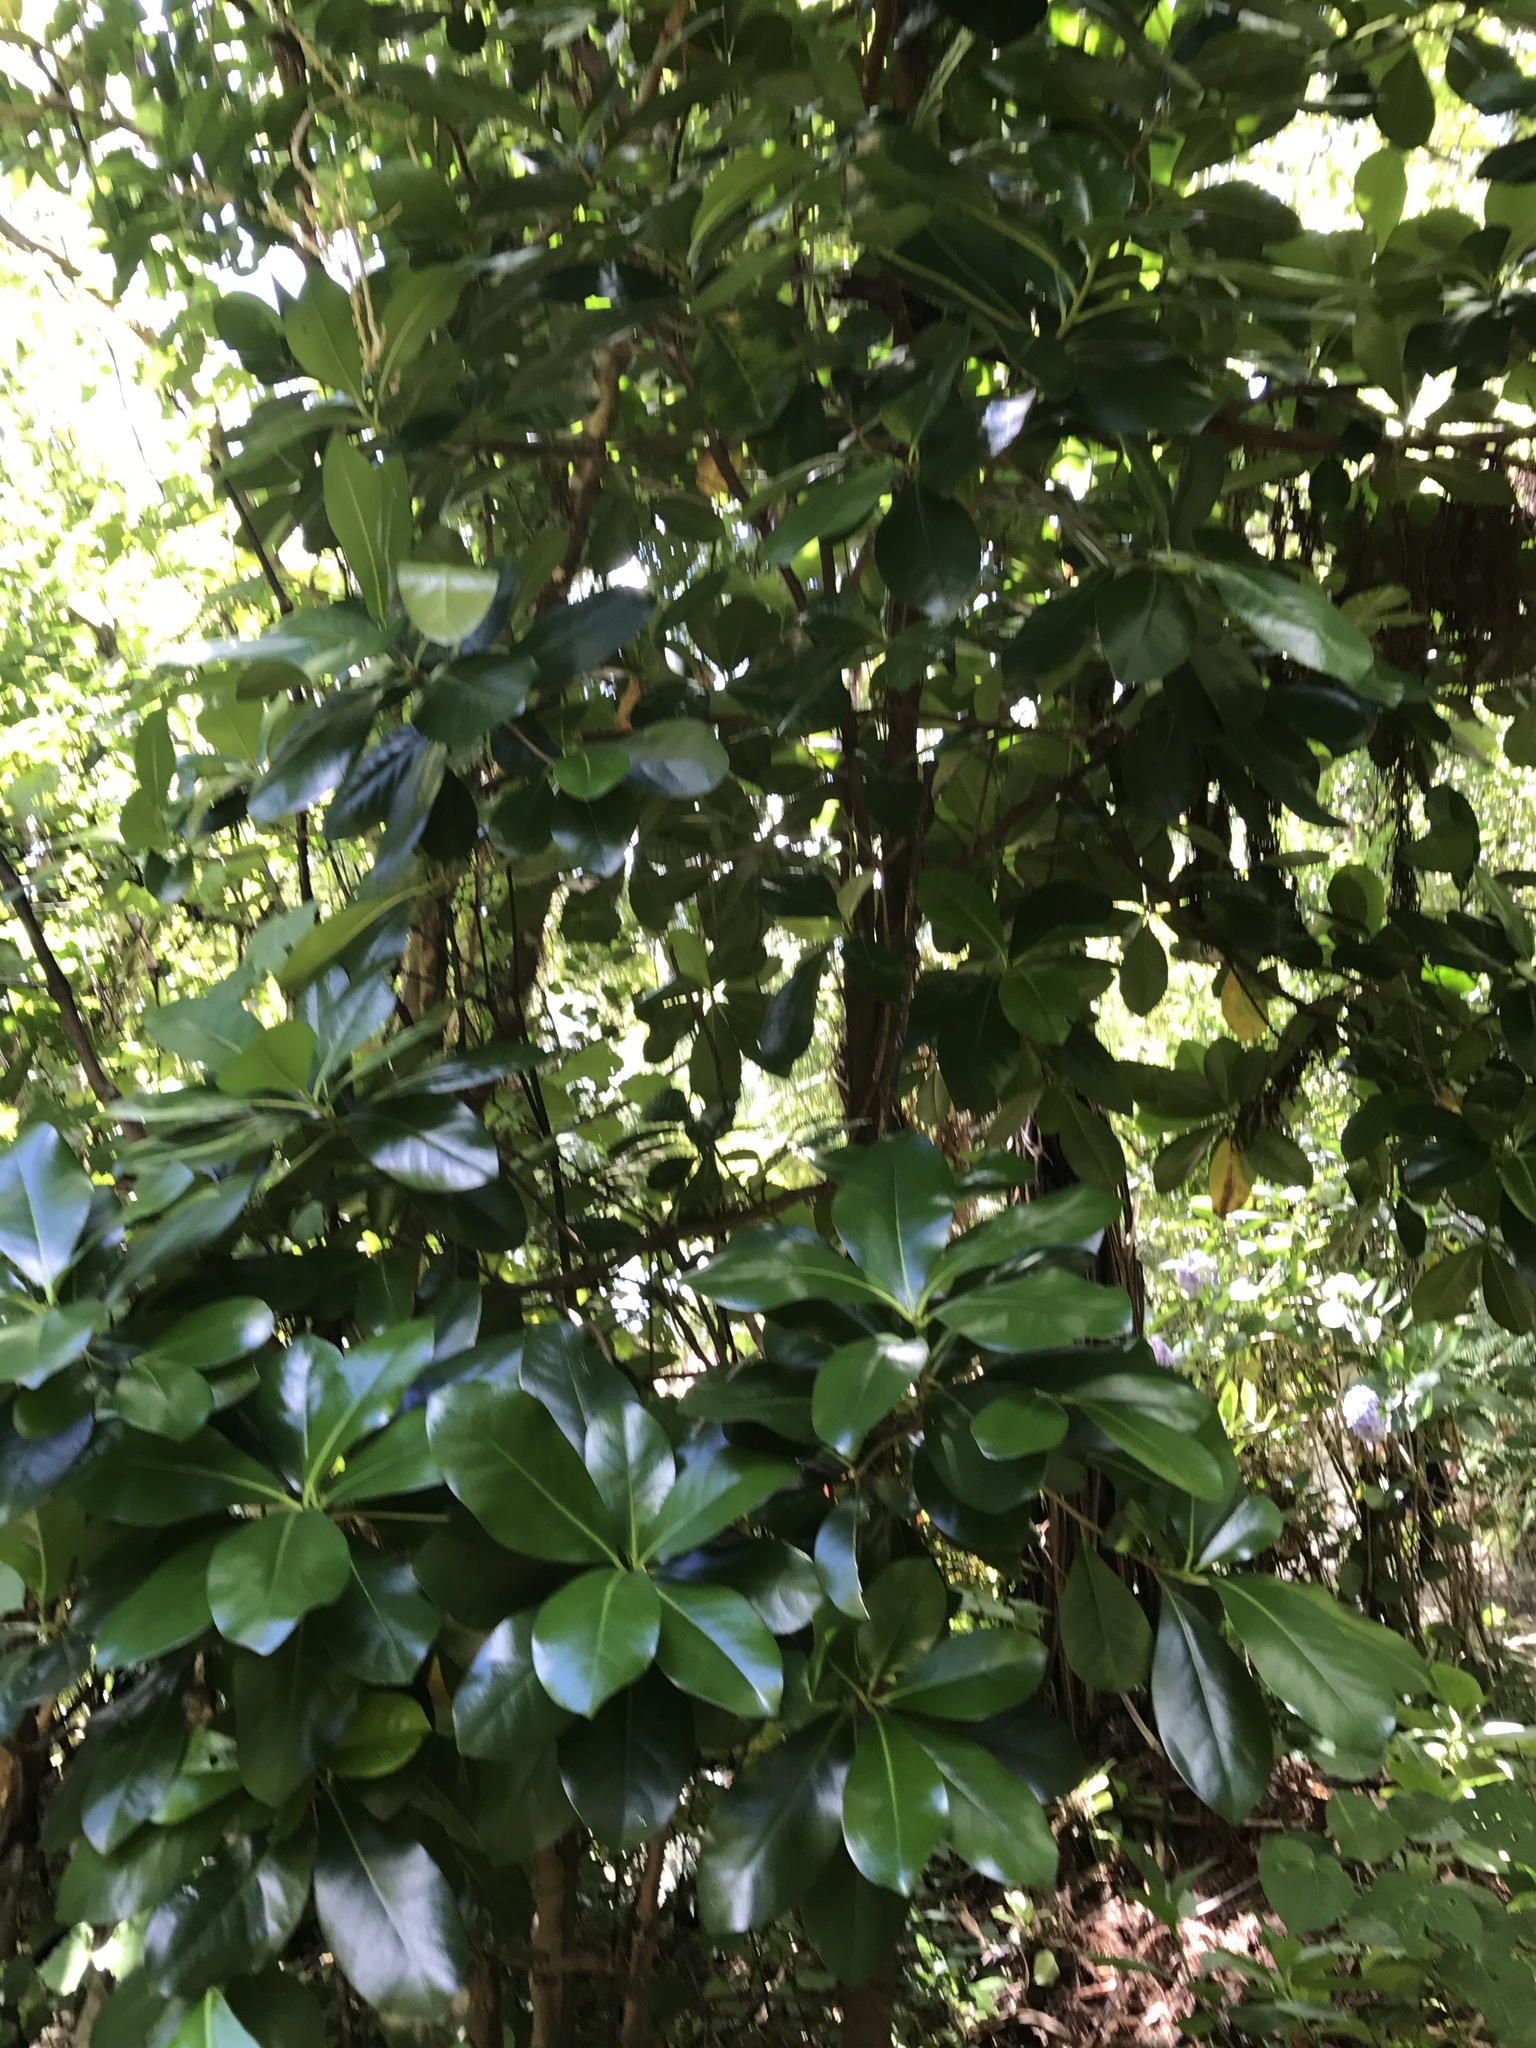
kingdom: Plantae
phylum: Tracheophyta
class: Magnoliopsida
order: Cucurbitales
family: Corynocarpaceae
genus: Corynocarpus
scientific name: Corynocarpus laevigatus
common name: New zealand laurel
